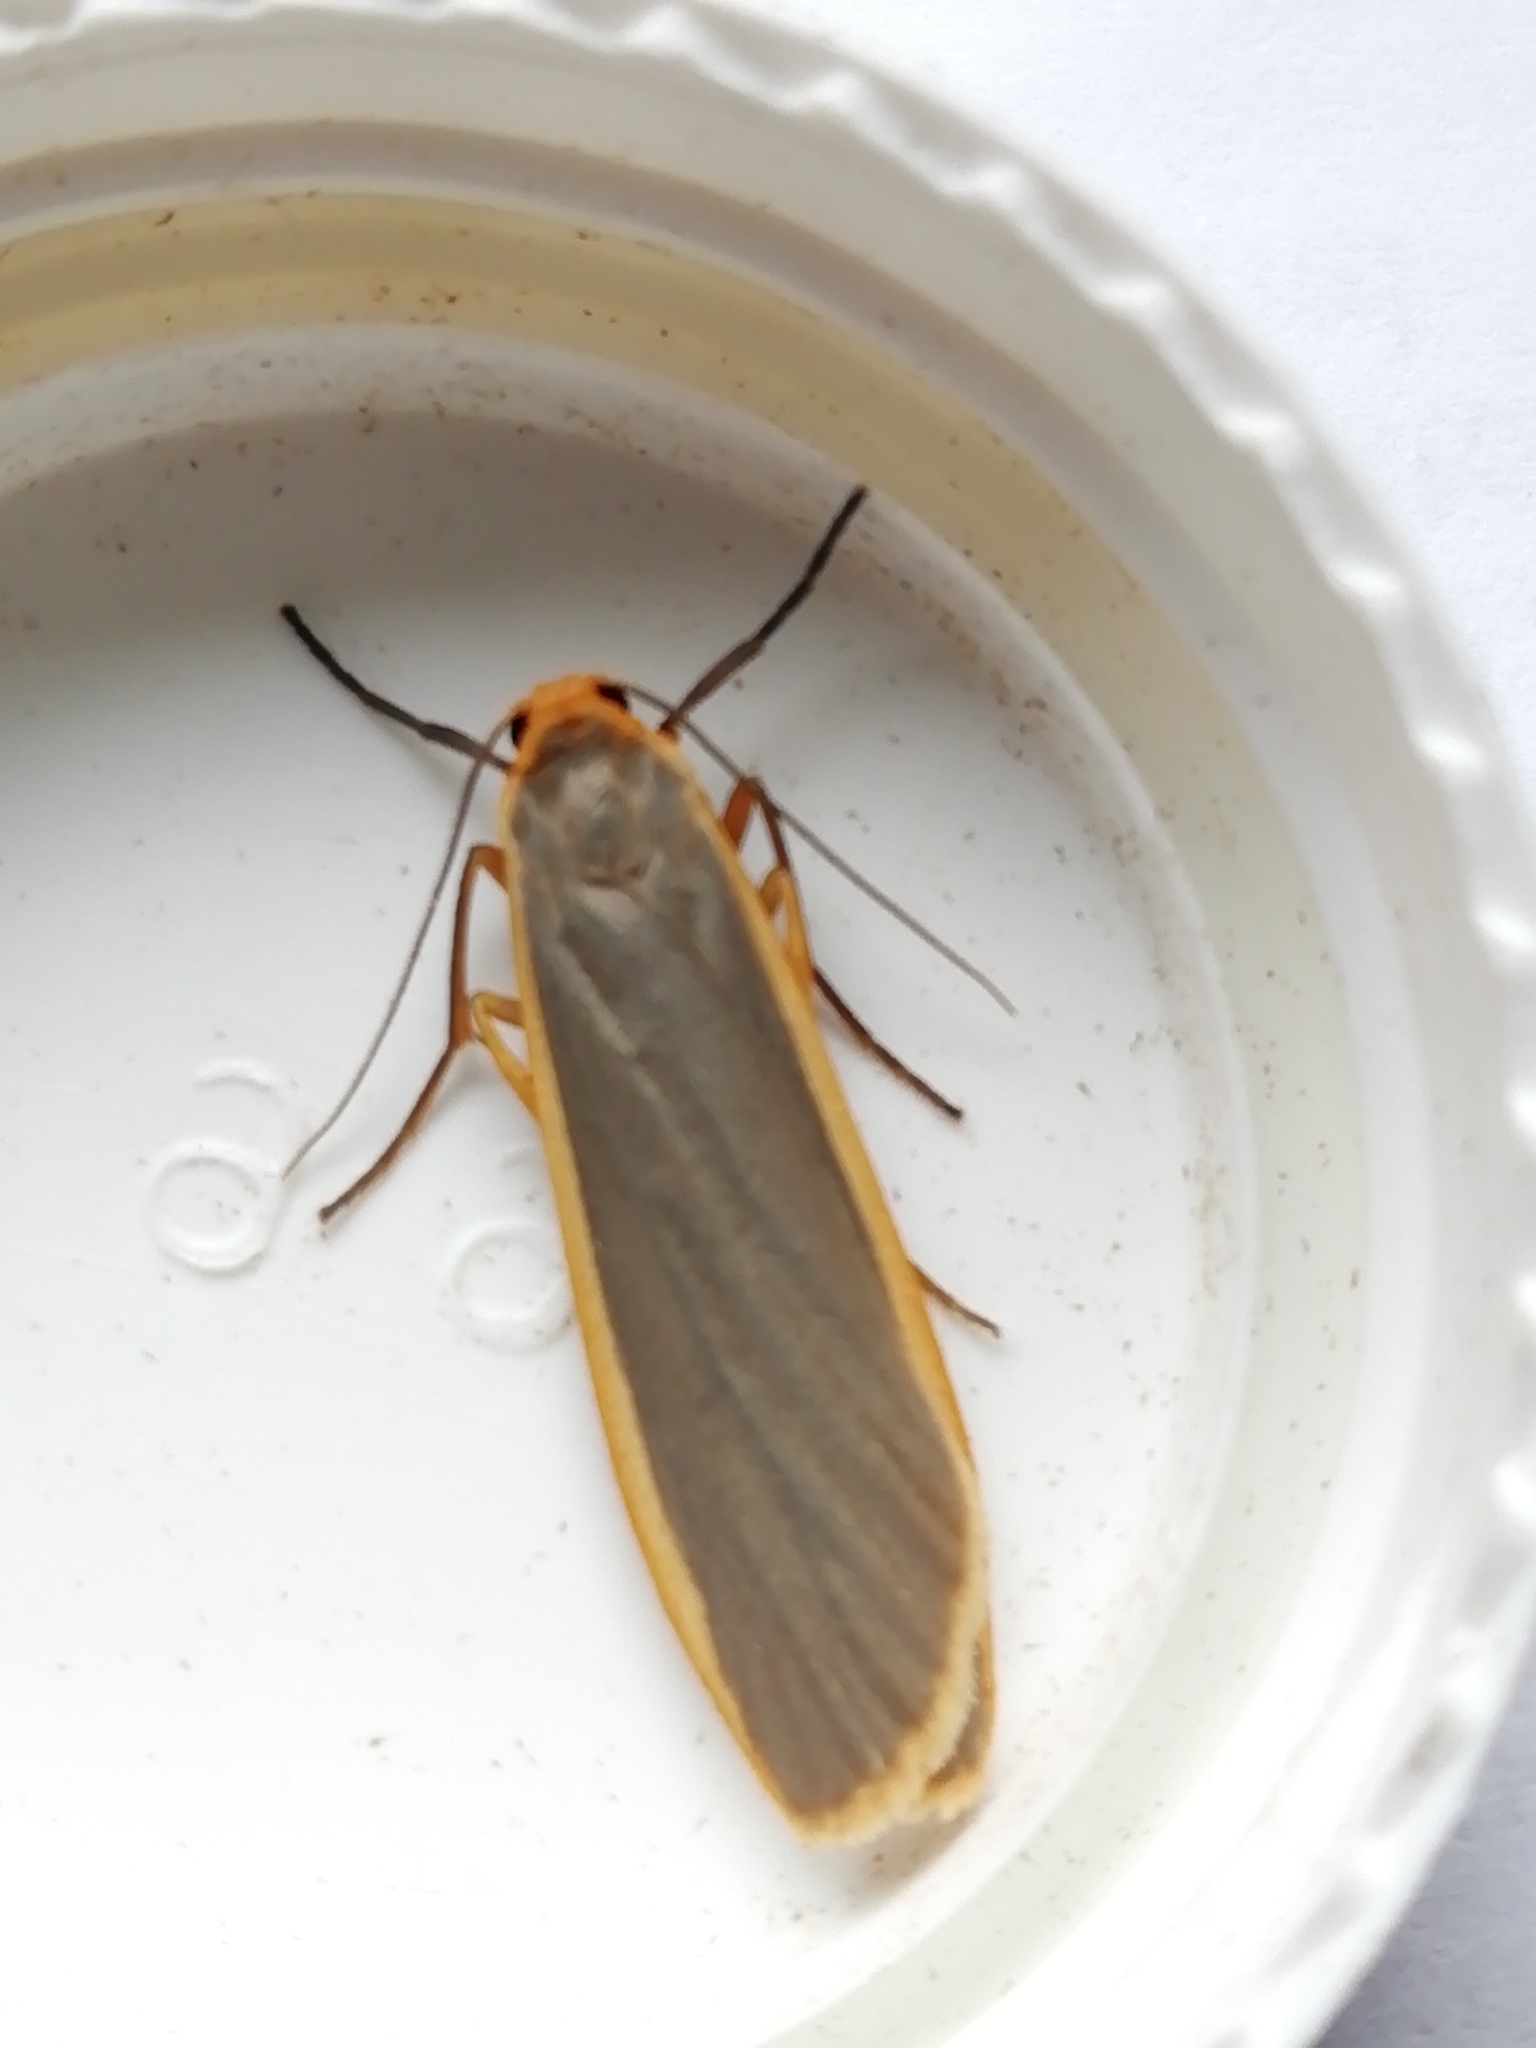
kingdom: Animalia
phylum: Arthropoda
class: Insecta
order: Lepidoptera
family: Erebidae
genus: Nyea
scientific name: Nyea lurideola
